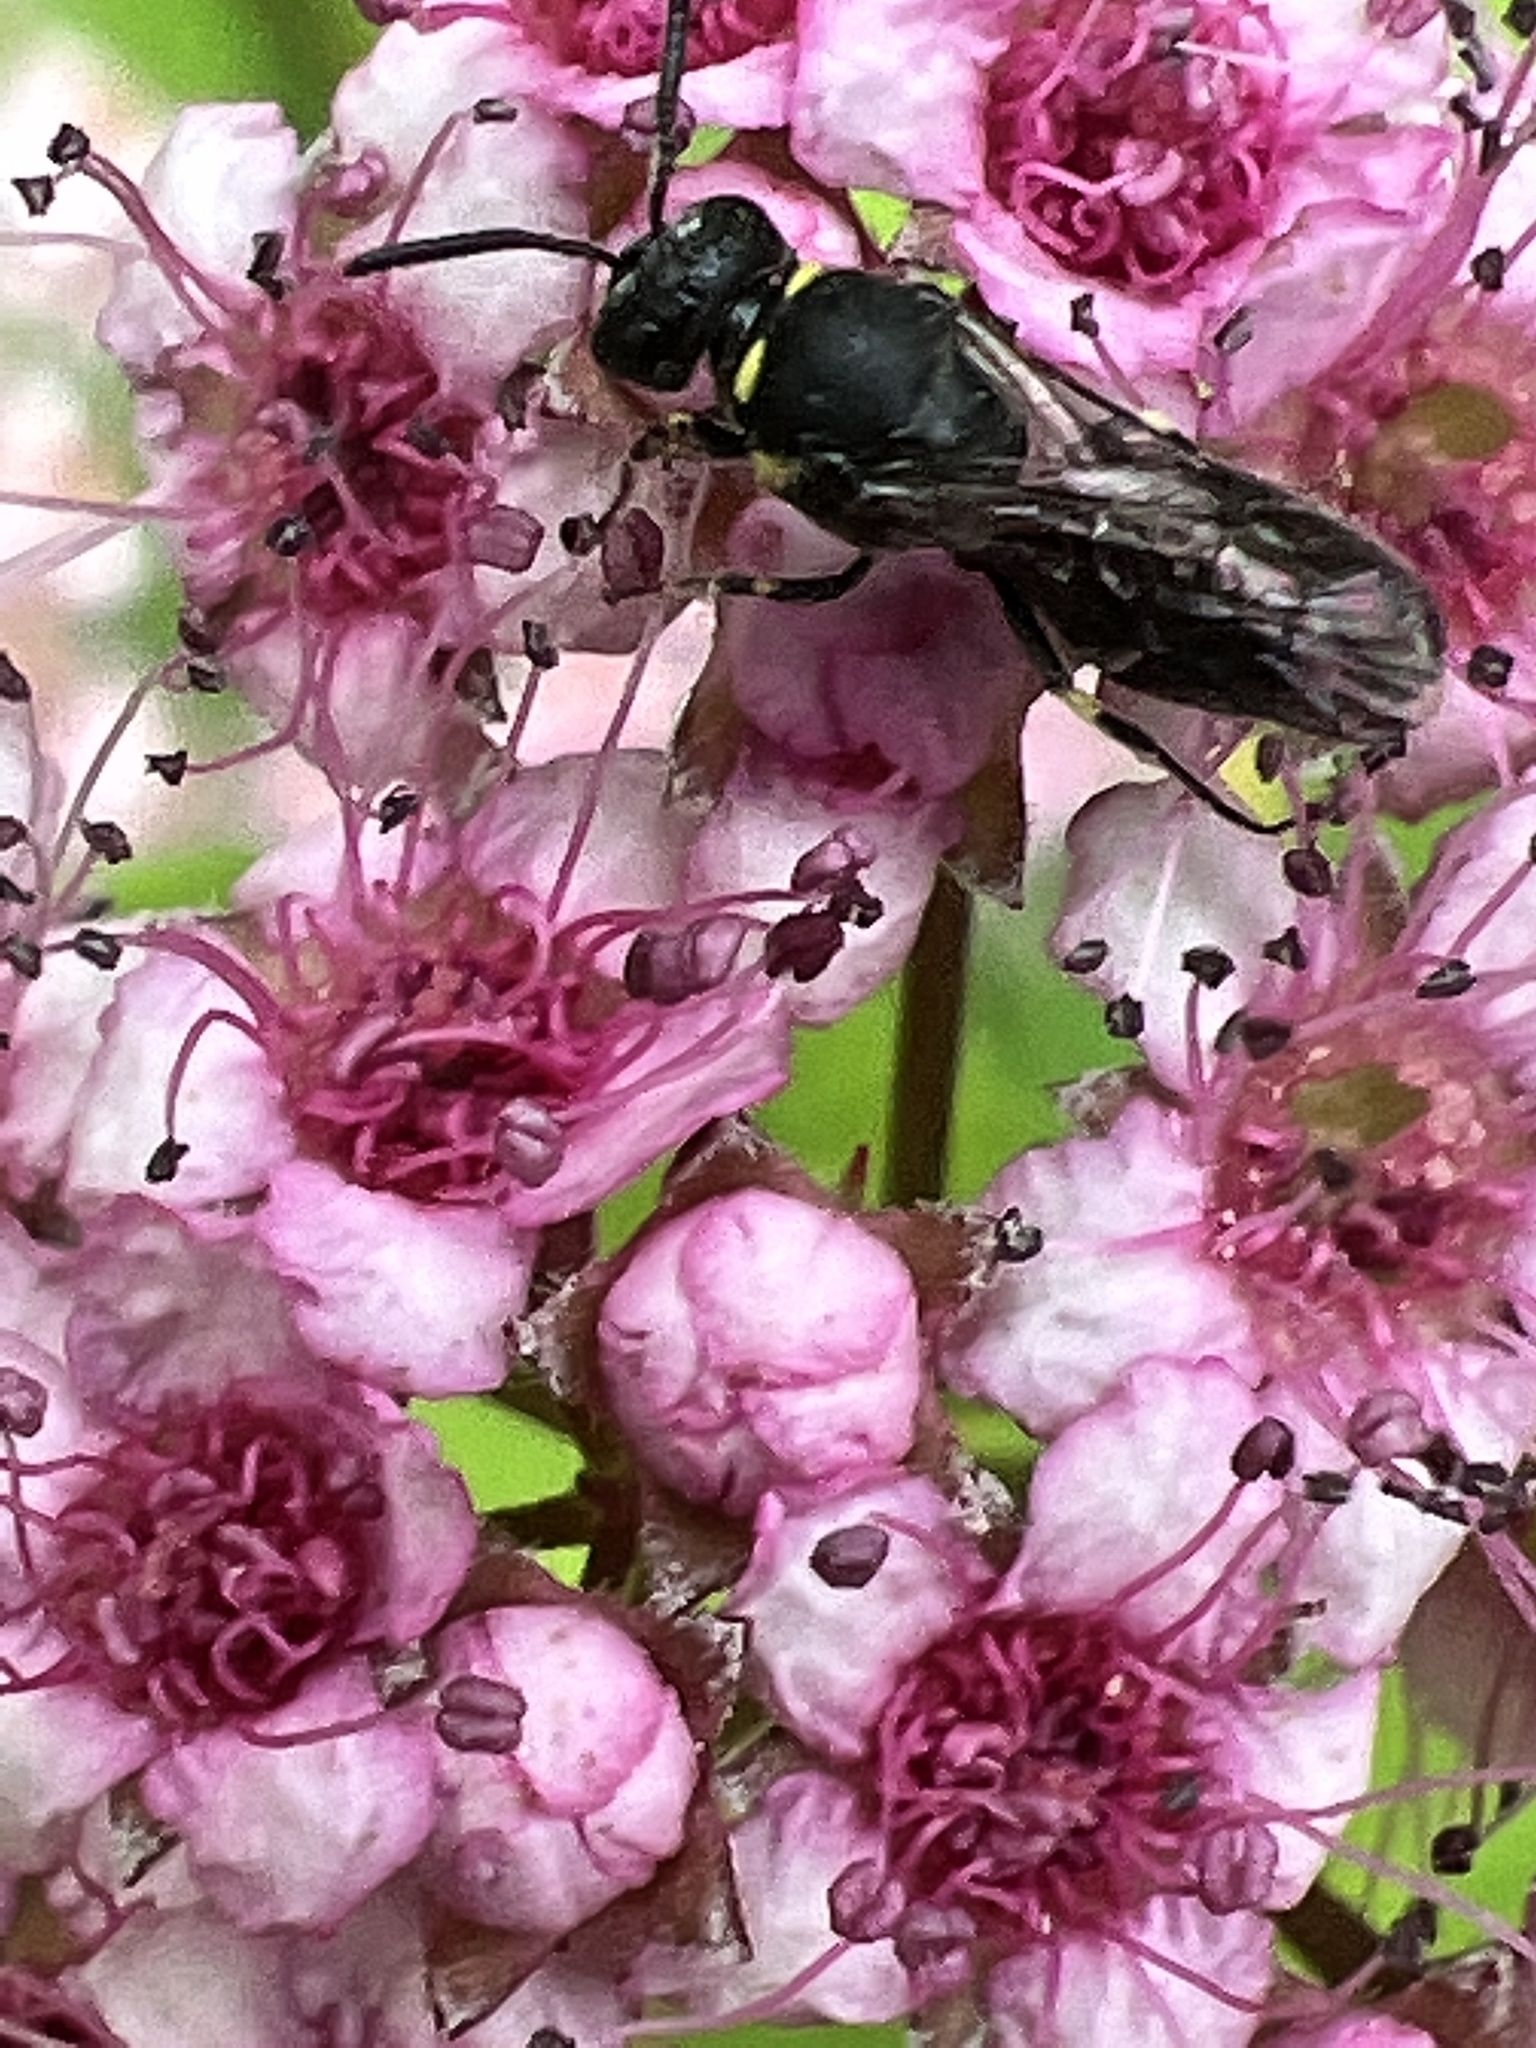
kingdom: Animalia
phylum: Arthropoda
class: Insecta
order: Hymenoptera
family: Colletidae
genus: Hylaeus
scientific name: Hylaeus modestus
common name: Yellow-faced bee
